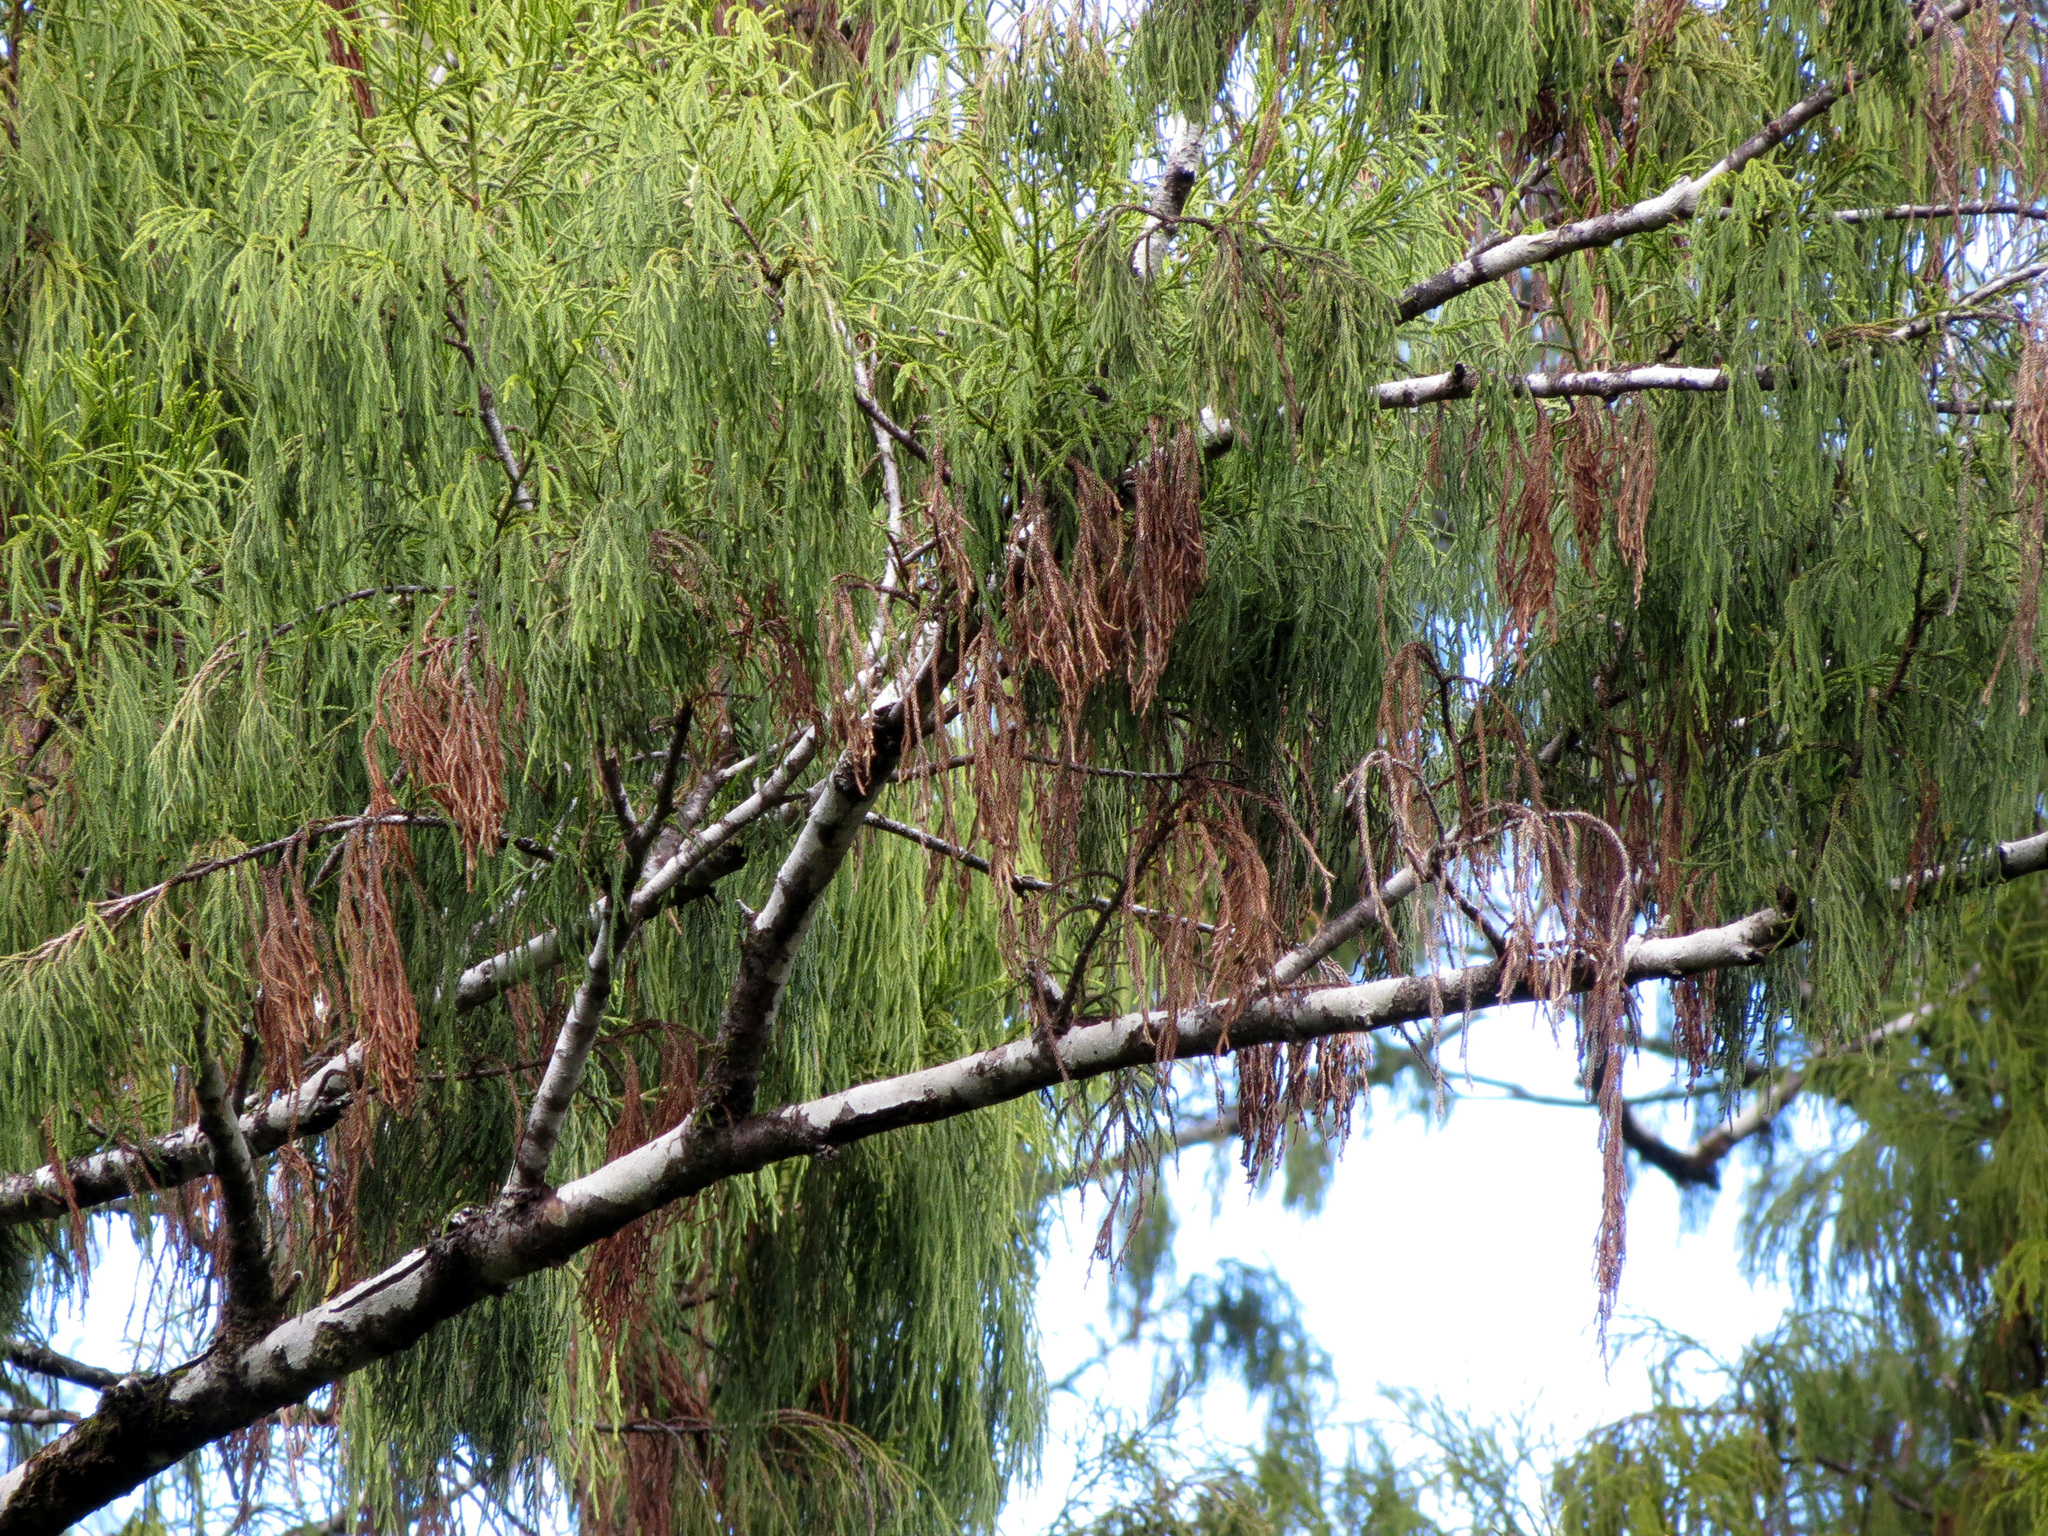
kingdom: Plantae
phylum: Tracheophyta
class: Pinopsida
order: Pinales
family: Podocarpaceae
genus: Dacrydium
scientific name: Dacrydium cupressinum
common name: Red pine
